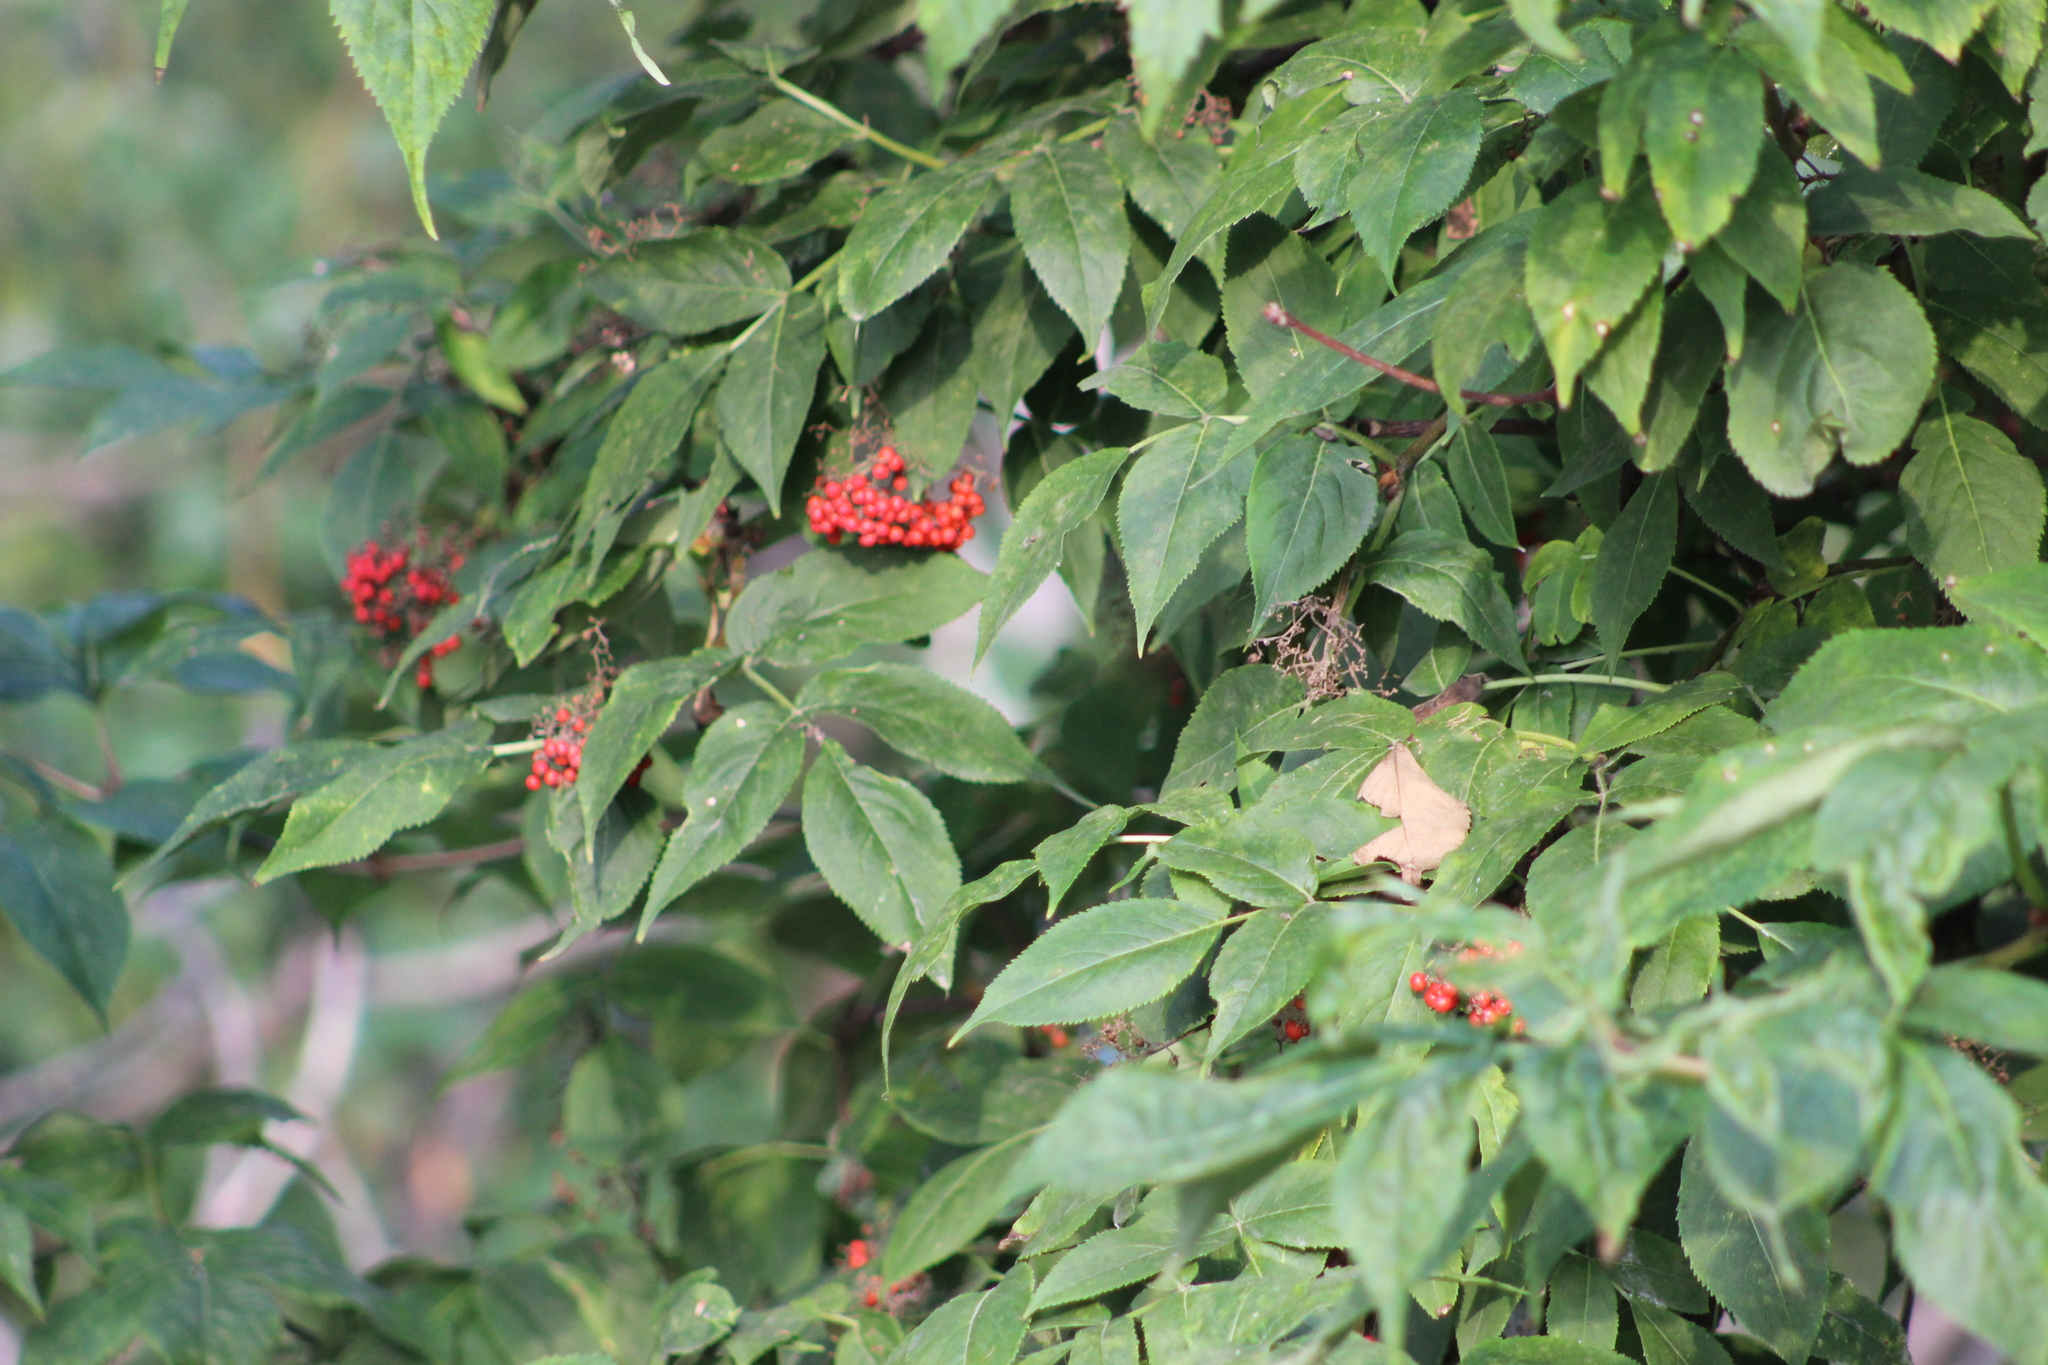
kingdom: Plantae
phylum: Tracheophyta
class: Magnoliopsida
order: Dipsacales
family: Viburnaceae
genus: Sambucus
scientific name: Sambucus sibirica
